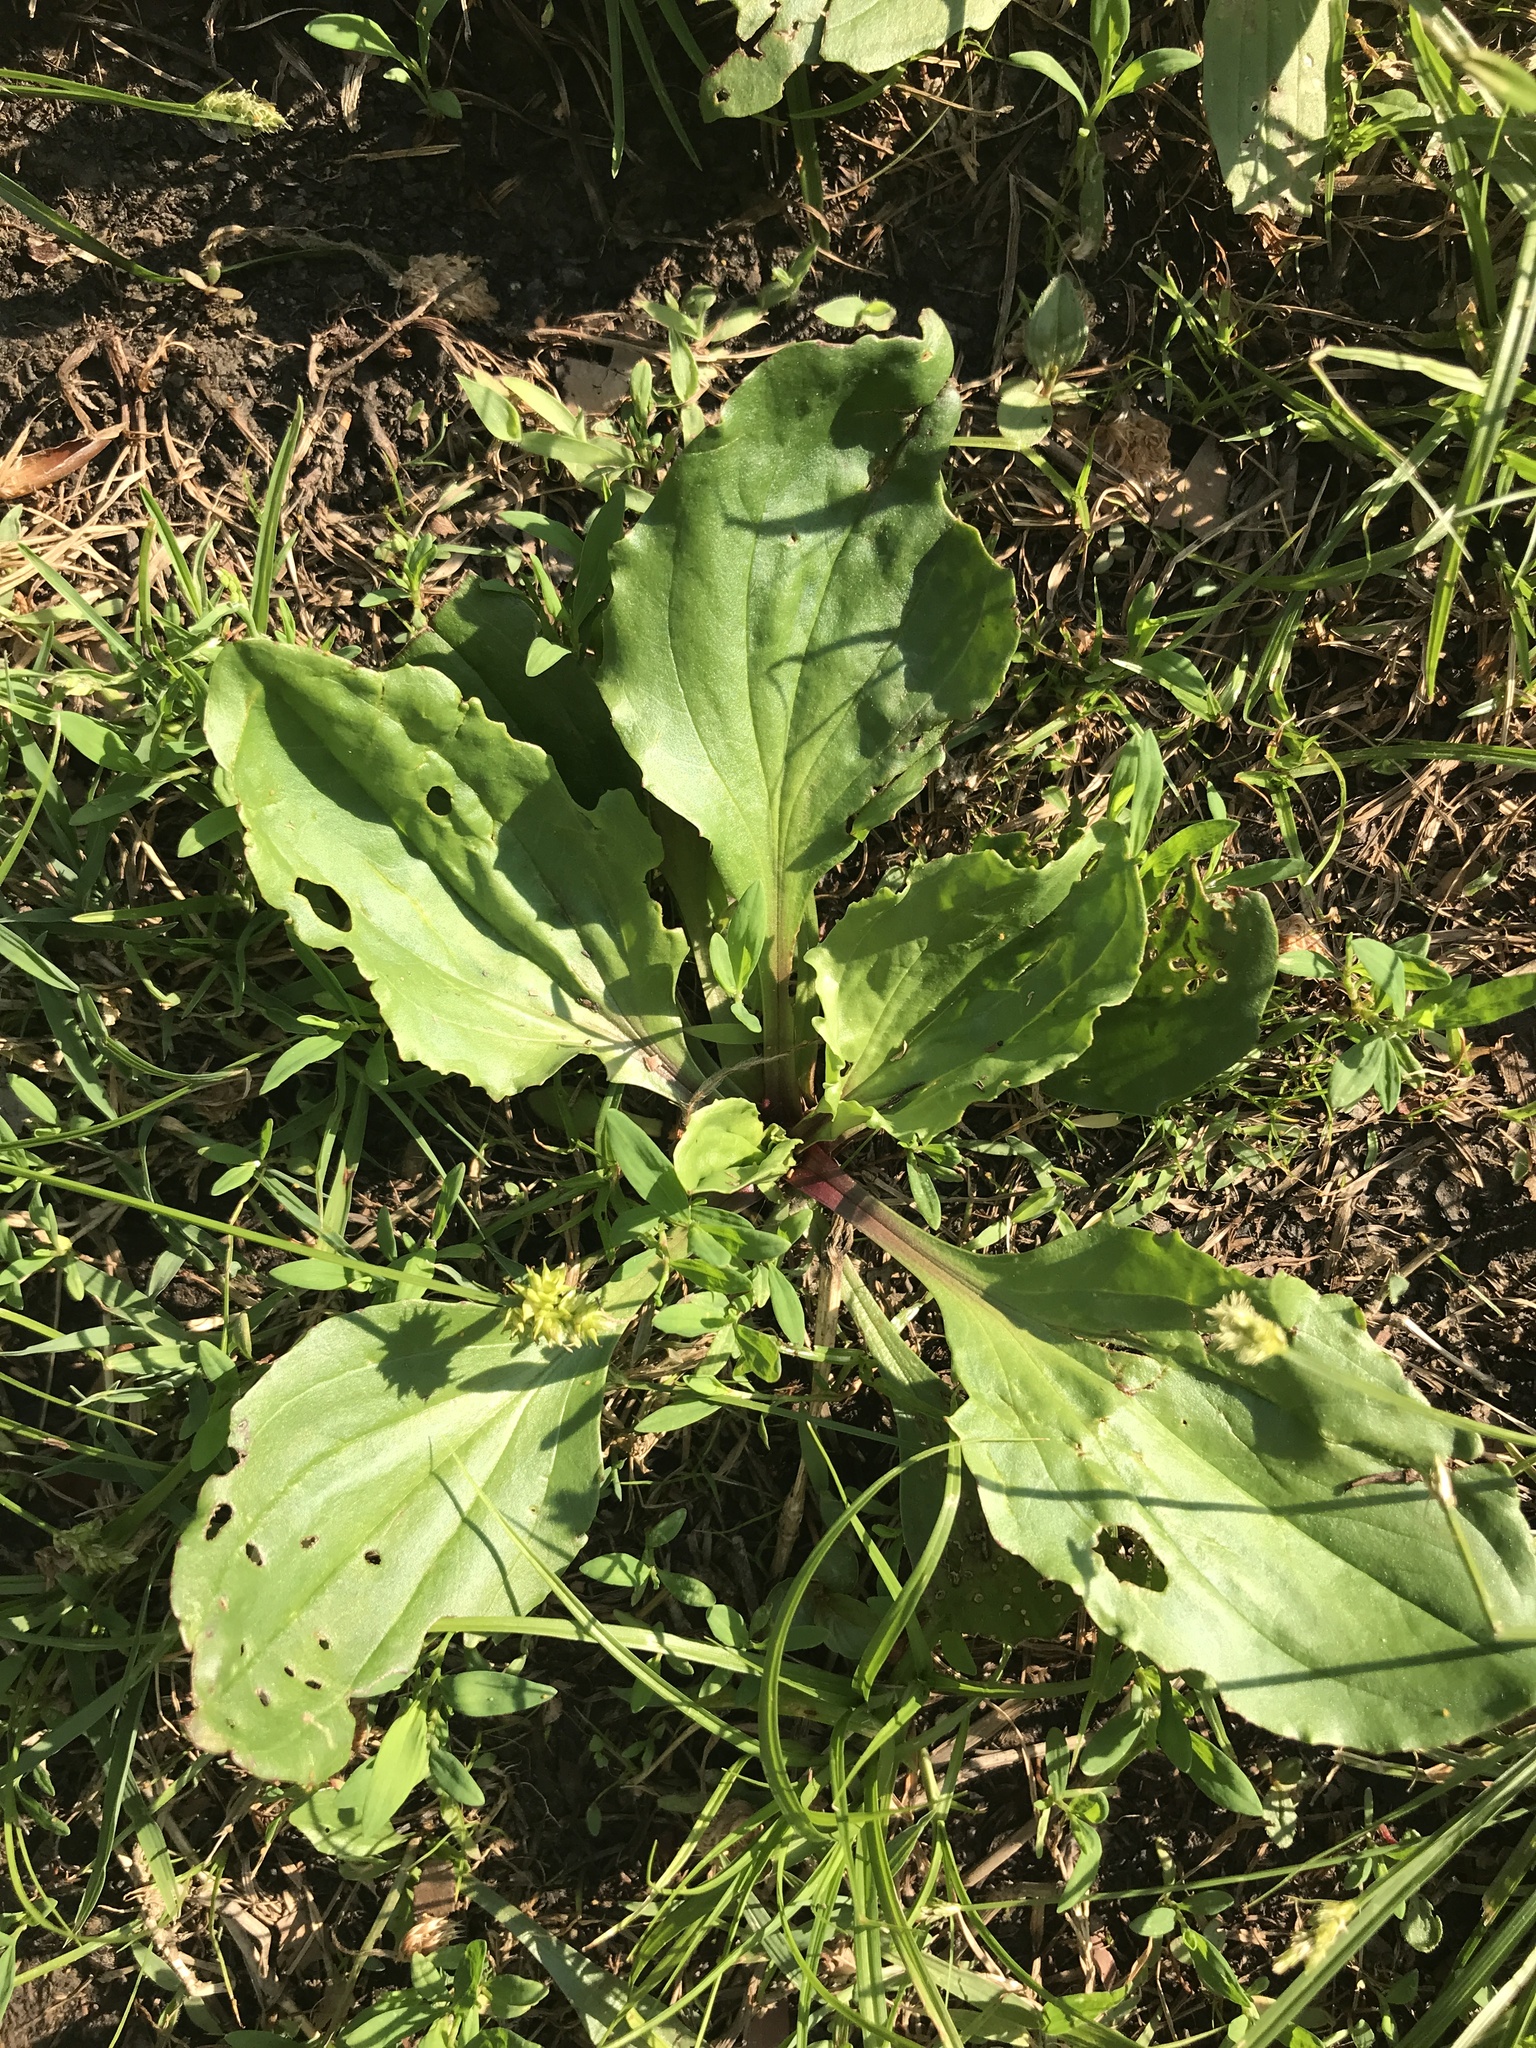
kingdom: Plantae
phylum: Tracheophyta
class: Magnoliopsida
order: Lamiales
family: Plantaginaceae
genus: Plantago
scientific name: Plantago rugelii
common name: American plantain
